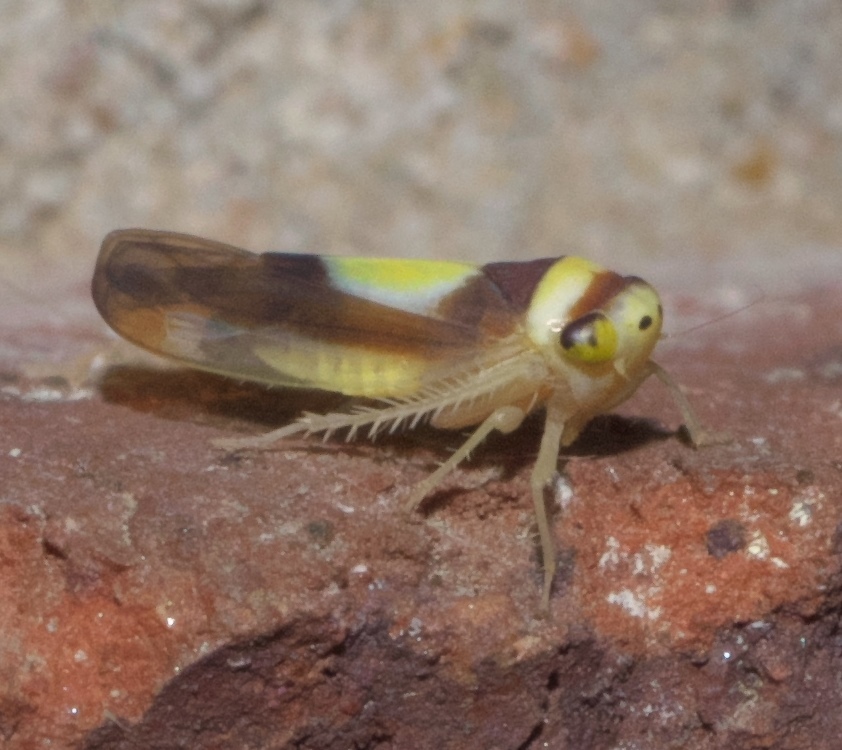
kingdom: Animalia
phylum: Arthropoda
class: Insecta
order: Hemiptera
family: Cicadellidae
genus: Colladonus
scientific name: Colladonus clitellarius
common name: The saddleback leafhopper
